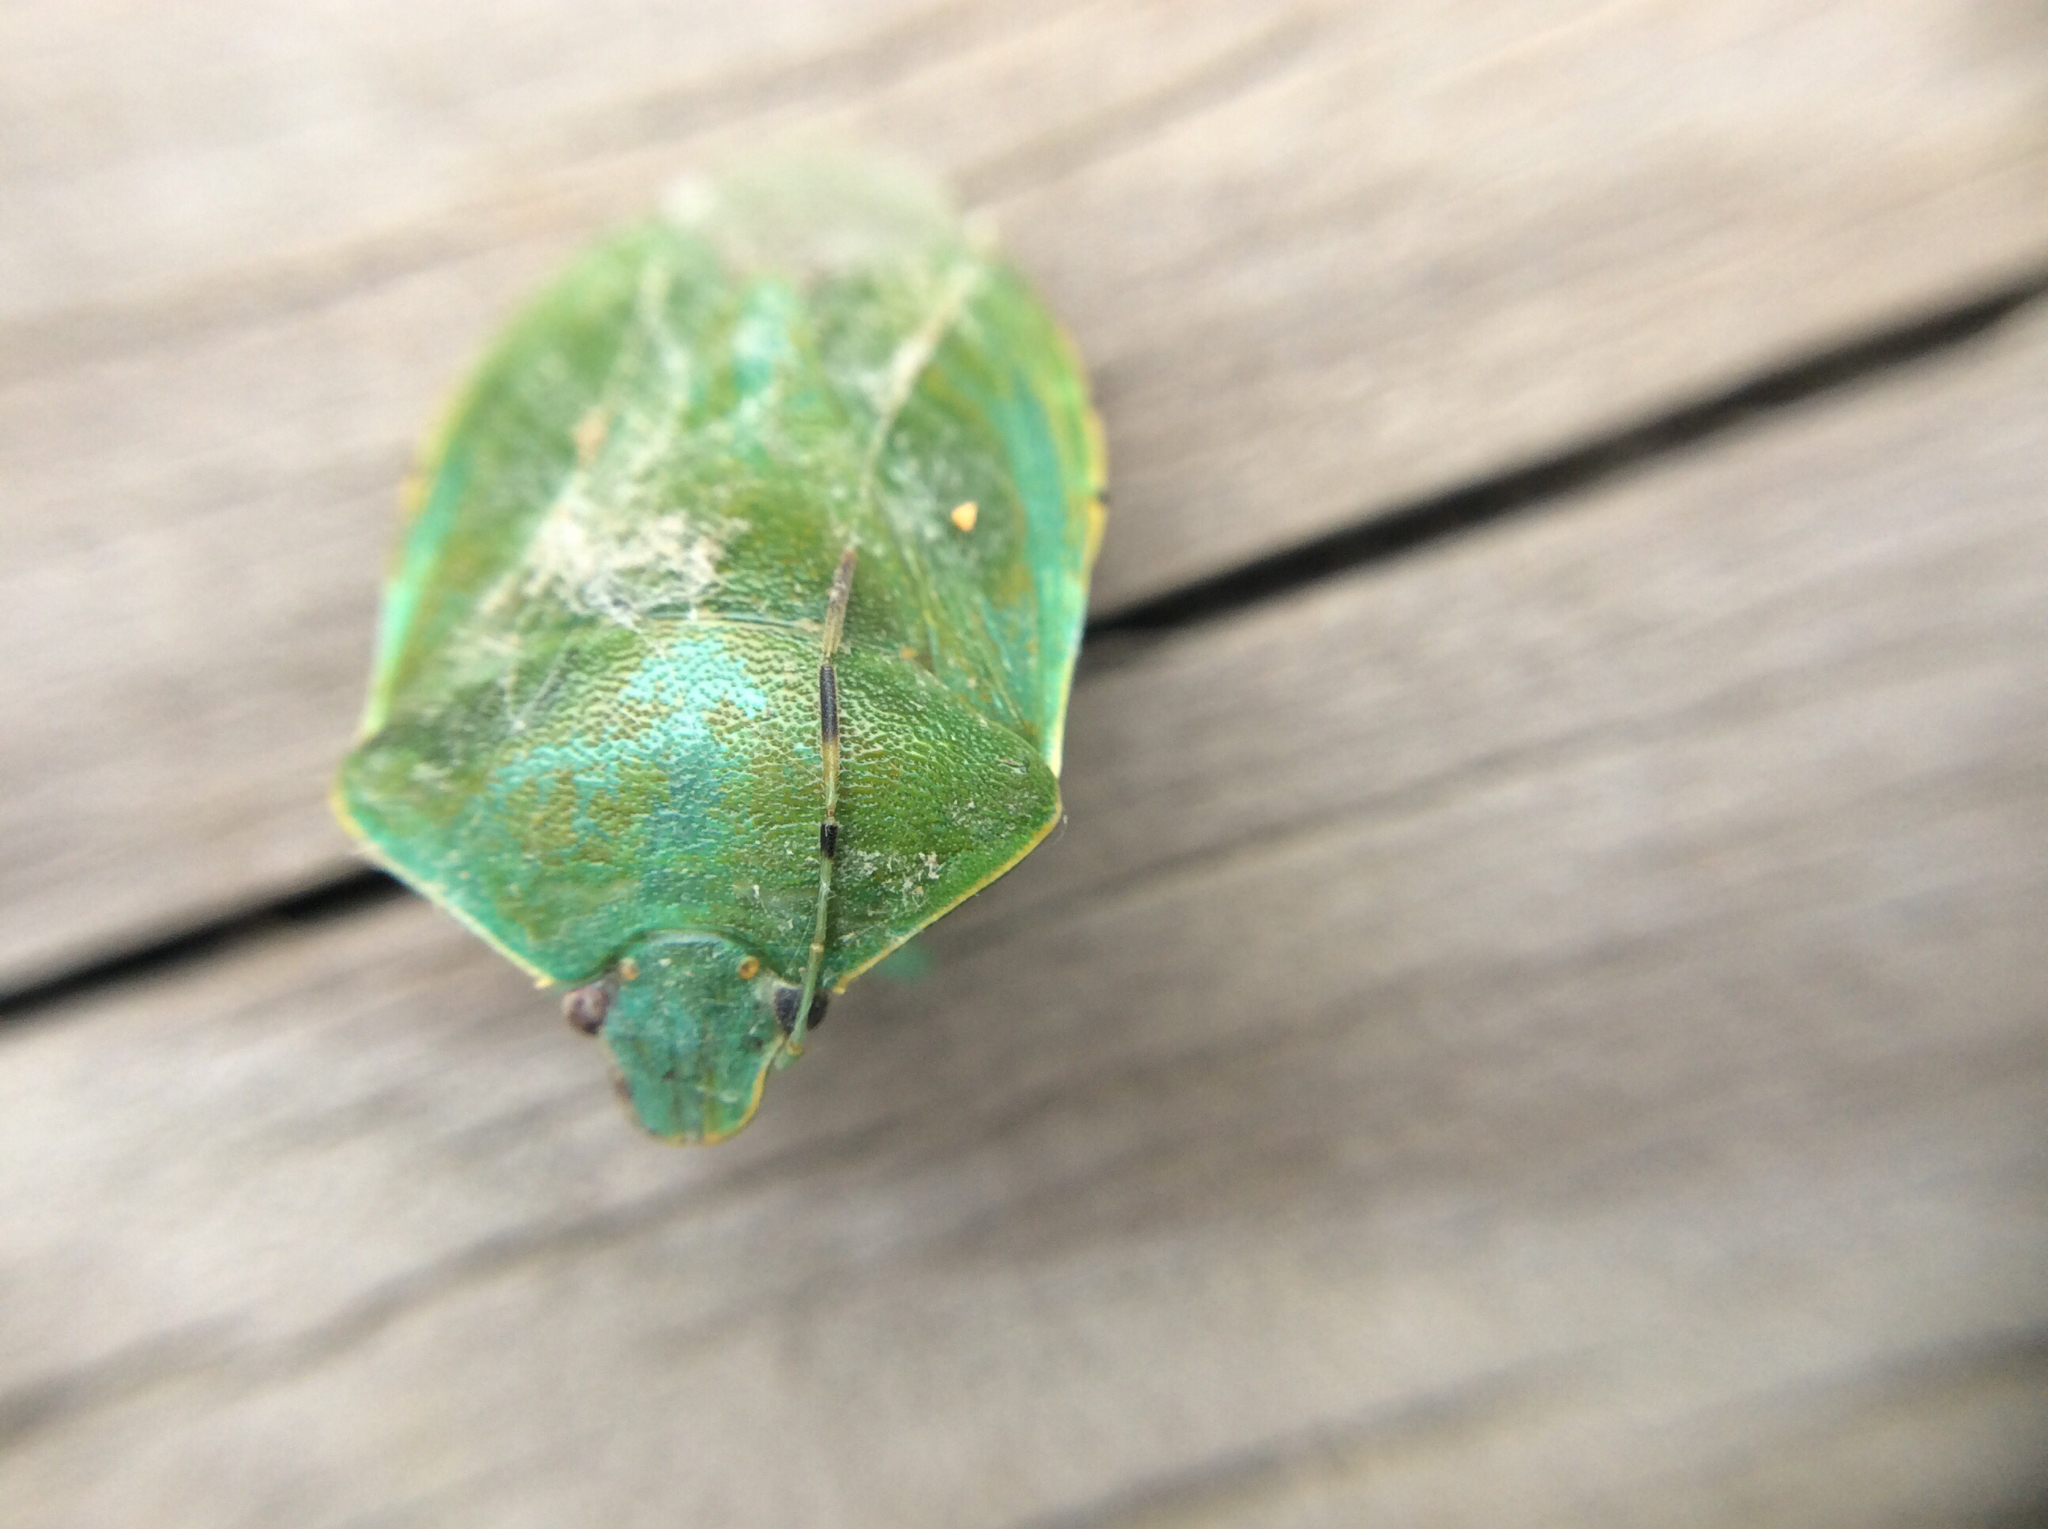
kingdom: Animalia
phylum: Arthropoda
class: Insecta
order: Hemiptera
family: Pentatomidae
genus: Chinavia
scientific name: Chinavia hilaris
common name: Green stink bug
